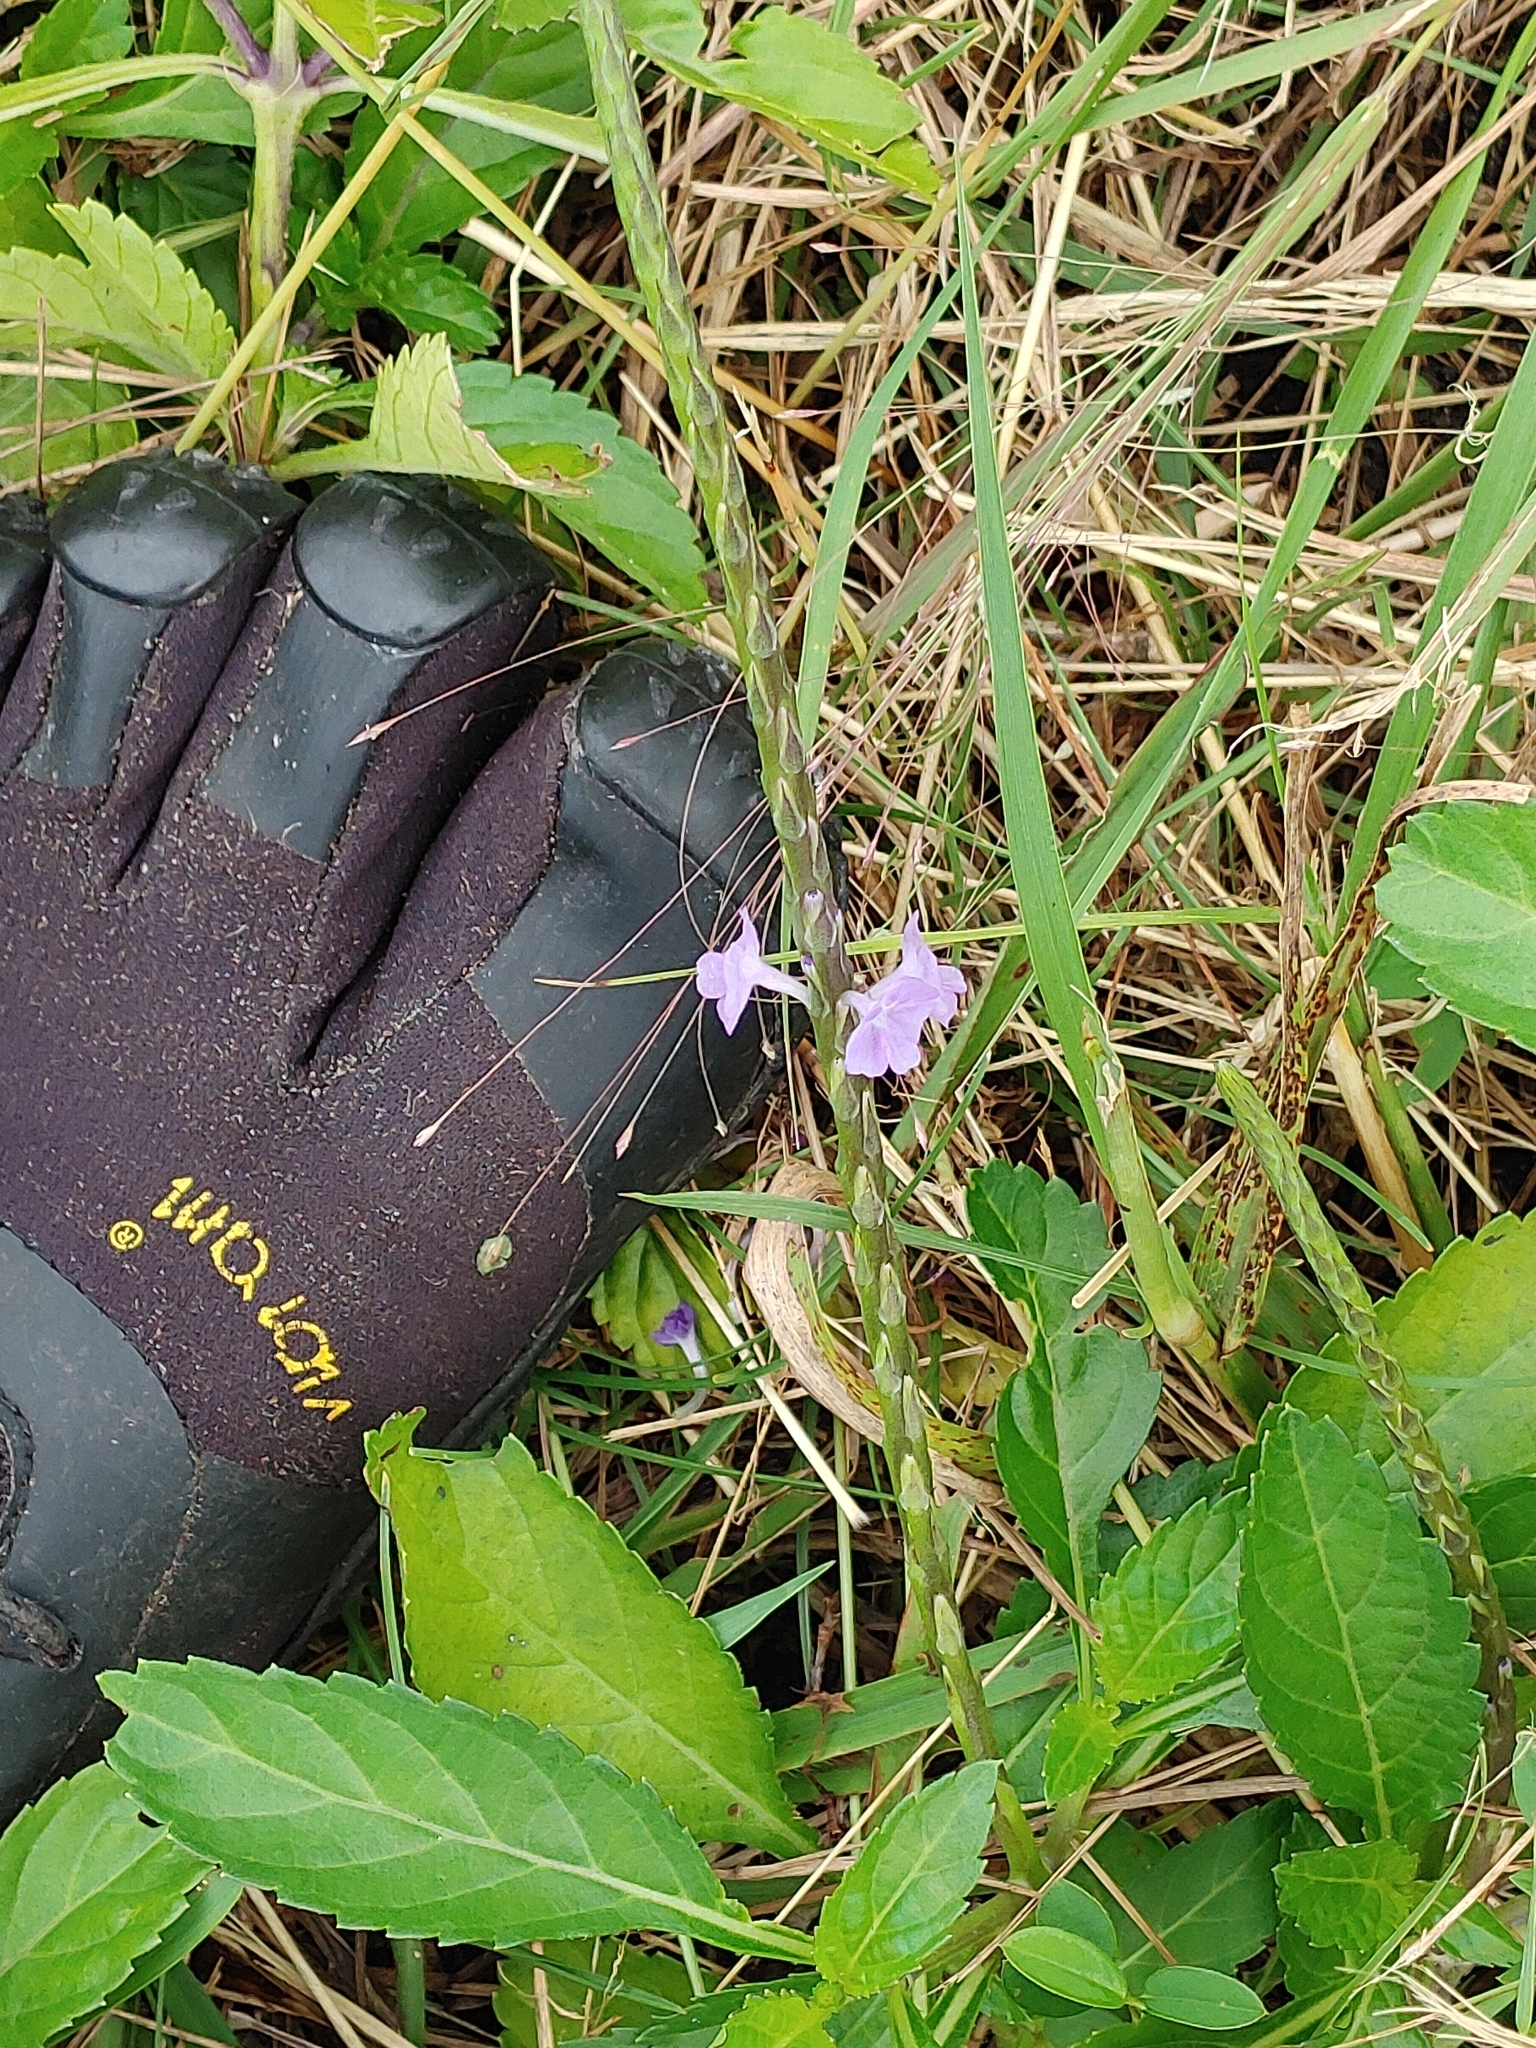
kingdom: Plantae
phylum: Tracheophyta
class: Magnoliopsida
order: Lamiales
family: Verbenaceae
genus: Stachytarpheta
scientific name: Stachytarpheta jamaicensis
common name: Light-blue snakeweed
